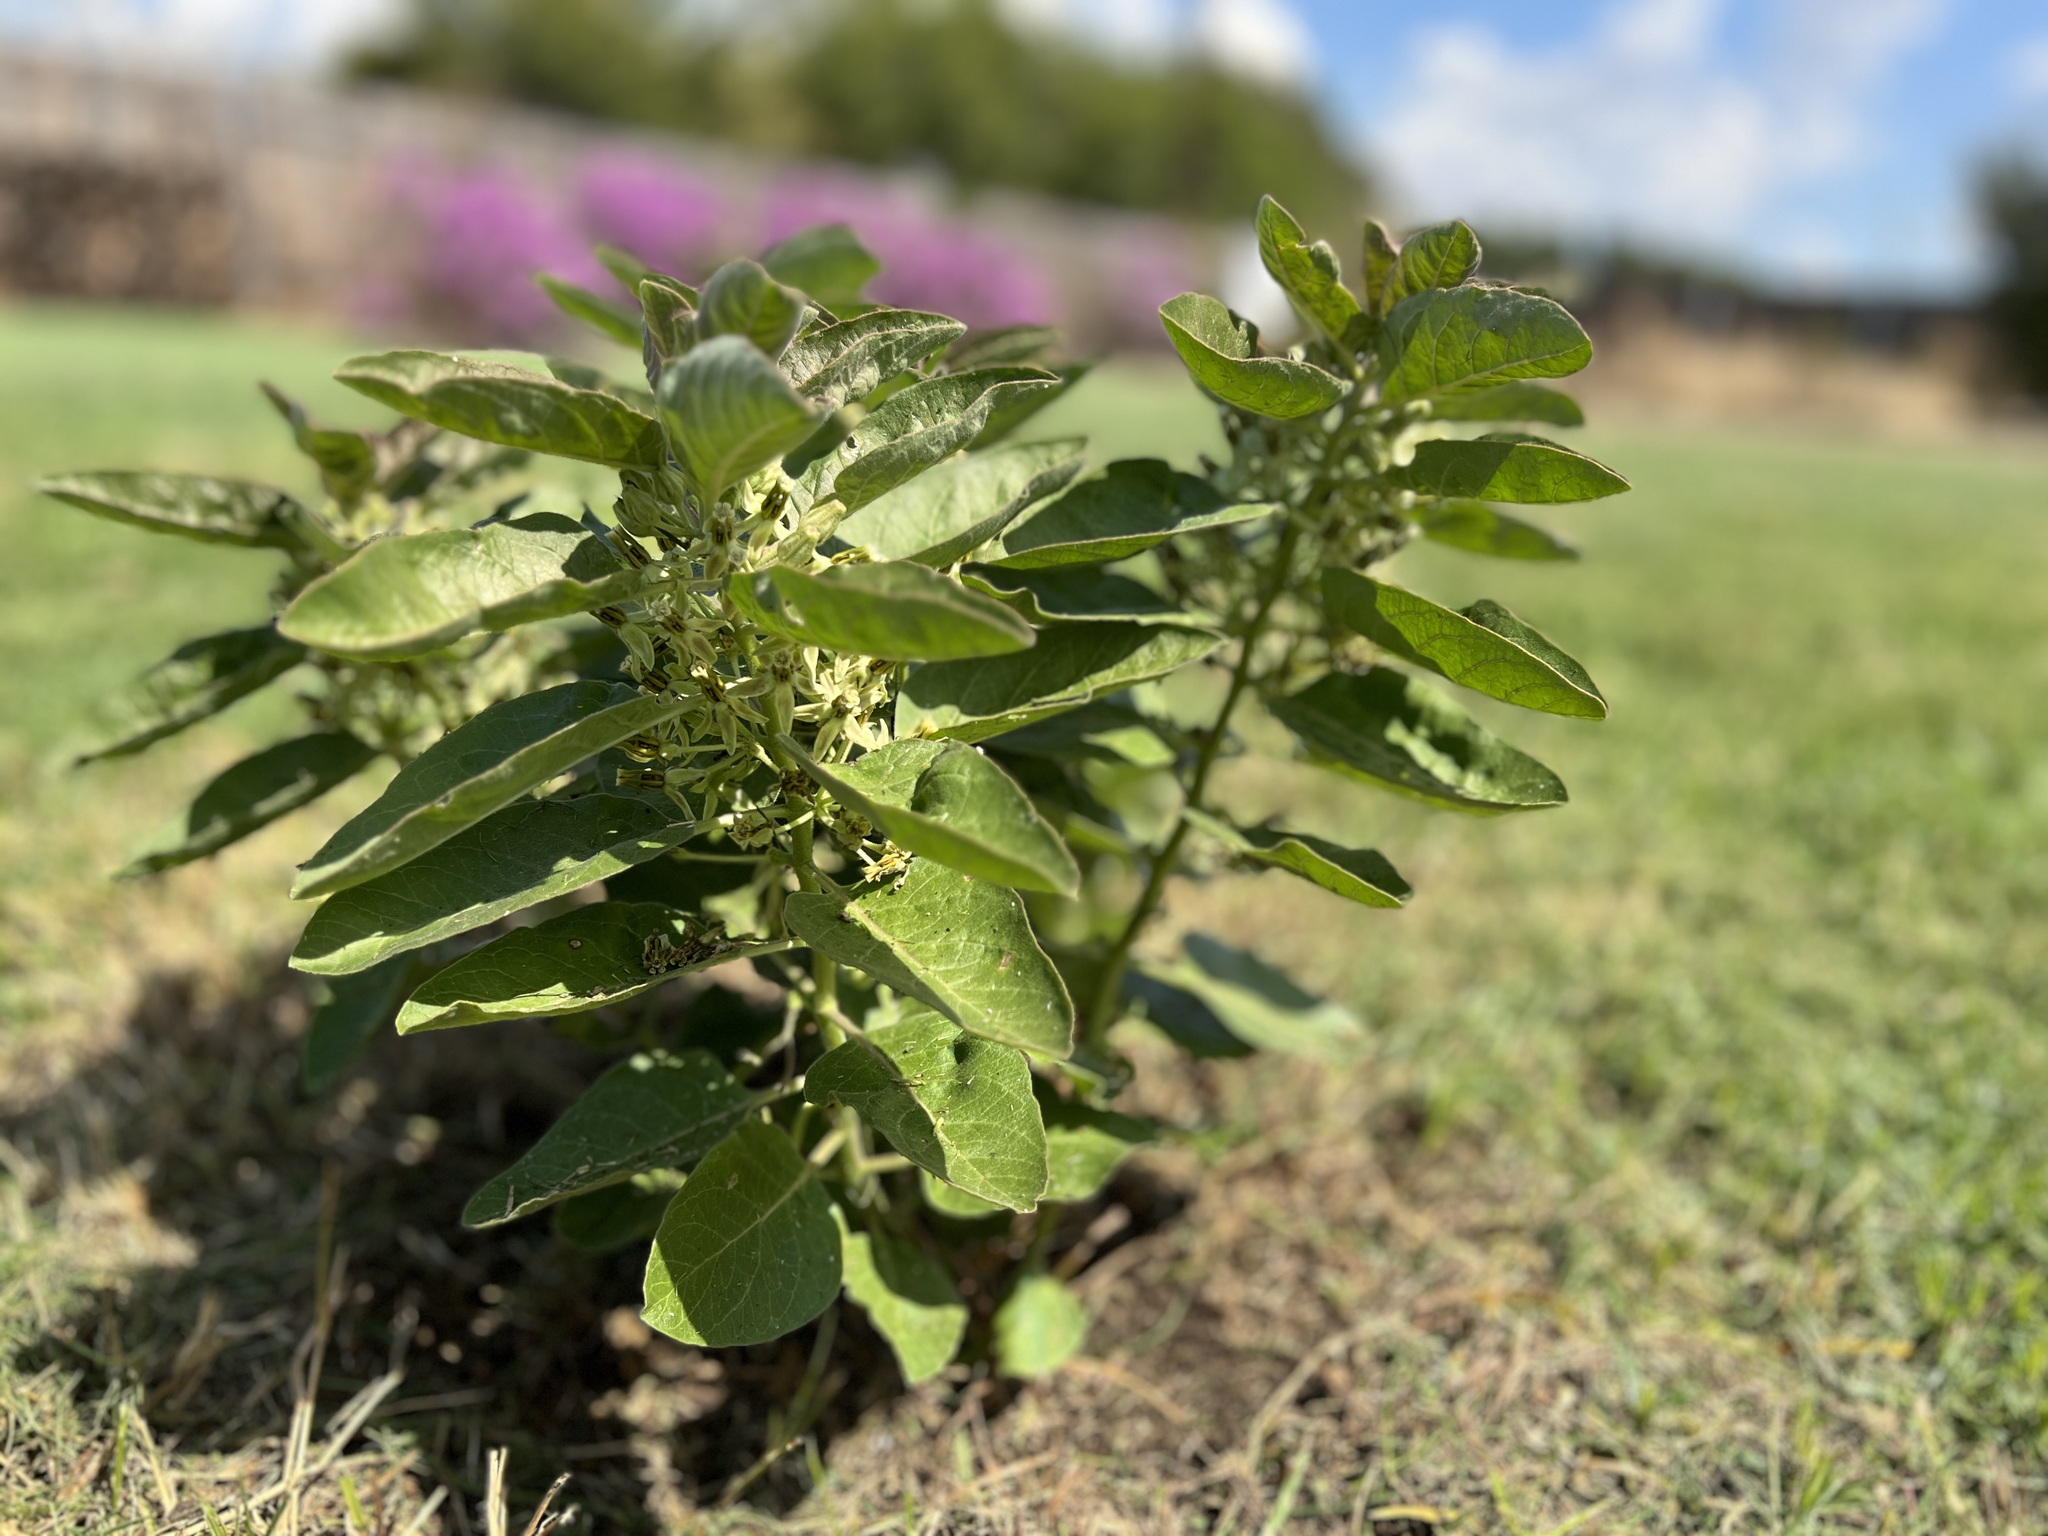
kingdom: Plantae
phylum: Tracheophyta
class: Magnoliopsida
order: Gentianales
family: Apocynaceae
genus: Asclepias
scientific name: Asclepias oenotheroides
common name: Zizotes milkweed
